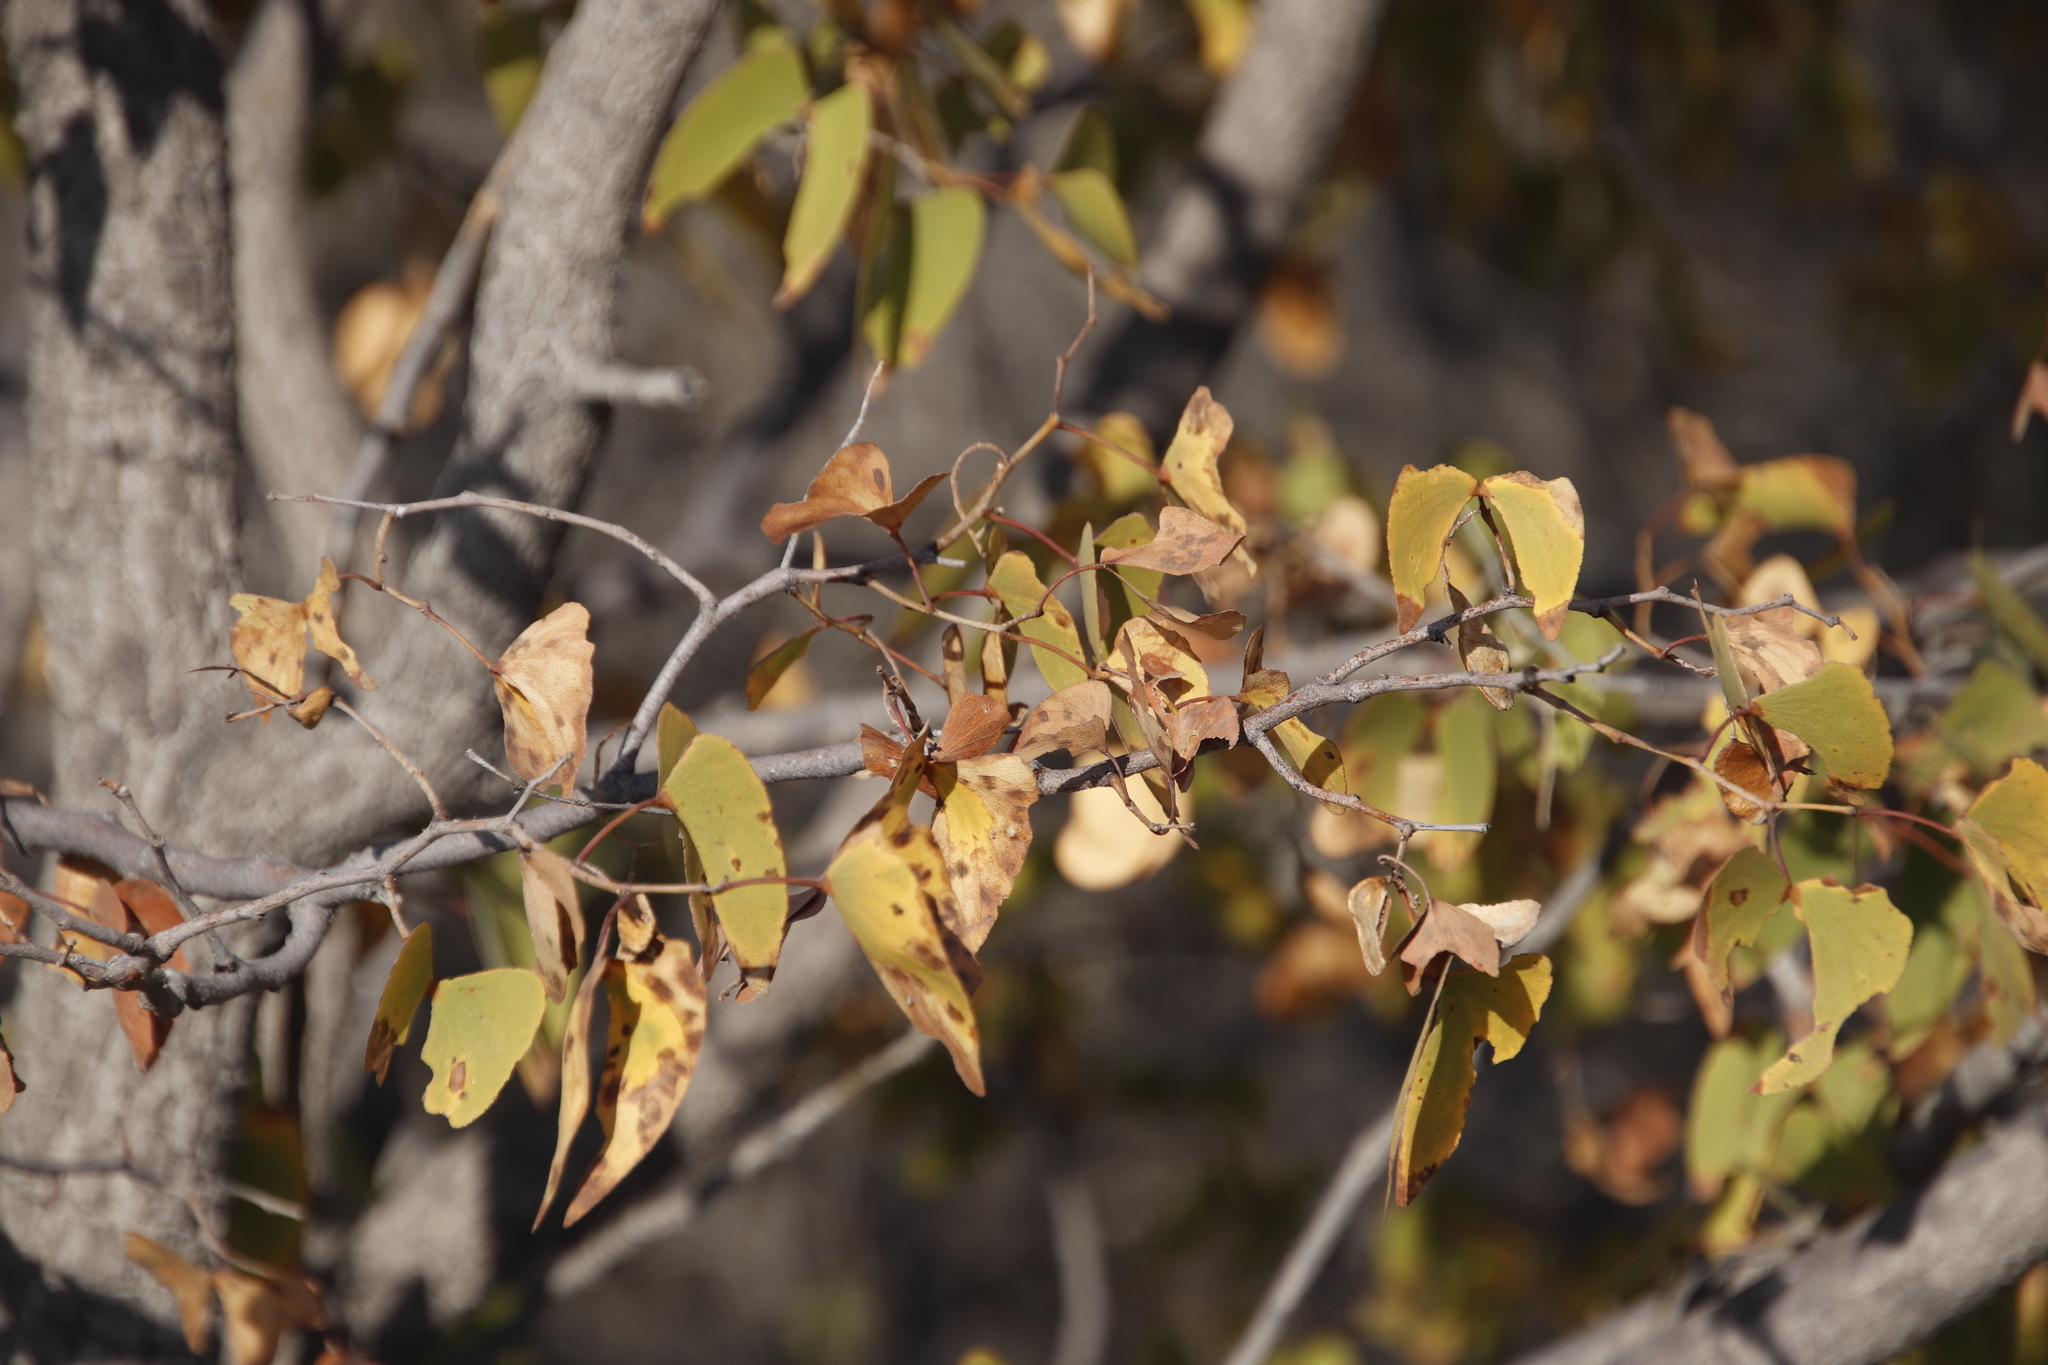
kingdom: Plantae
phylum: Tracheophyta
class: Magnoliopsida
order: Fabales
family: Fabaceae
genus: Colophospermum
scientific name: Colophospermum mopane
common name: Mopane
